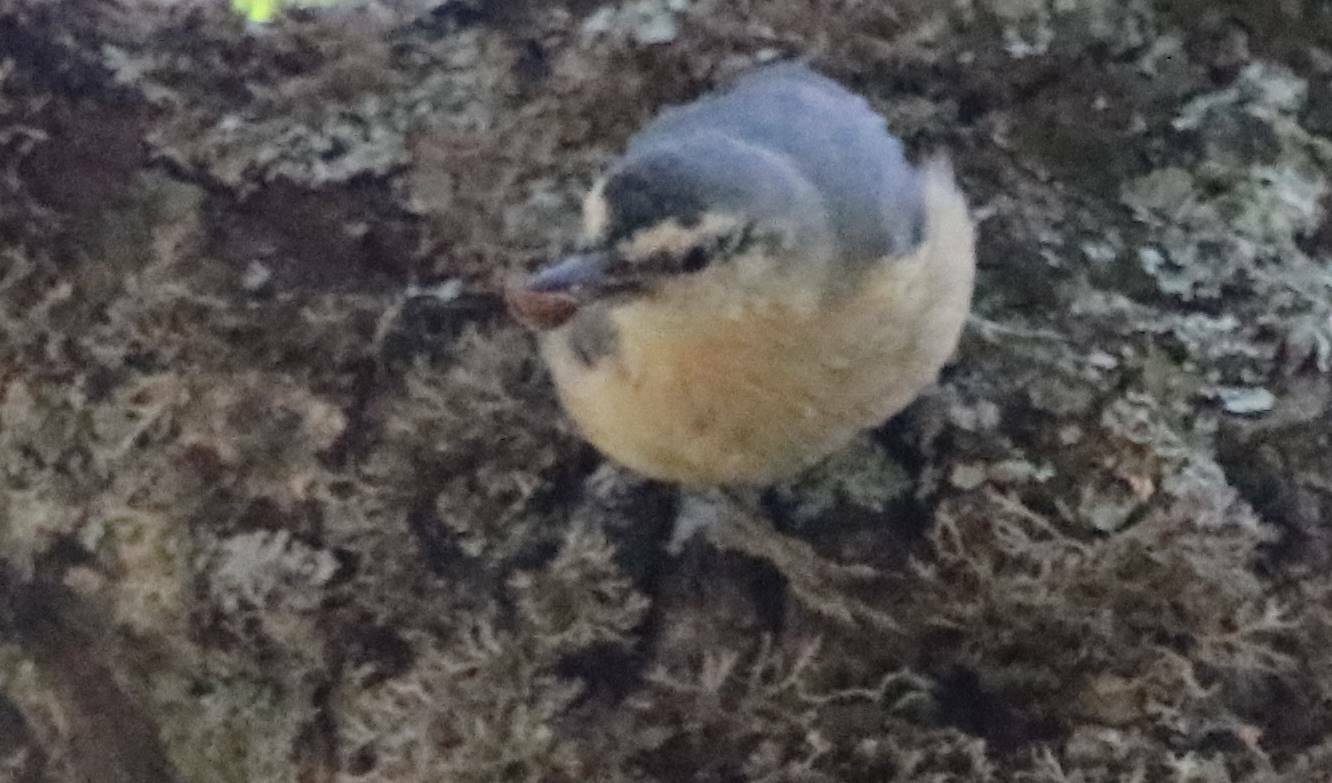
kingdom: Animalia
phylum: Chordata
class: Aves
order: Passeriformes
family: Sittidae
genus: Sitta
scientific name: Sitta ledanti
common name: Algerian nuthatch
